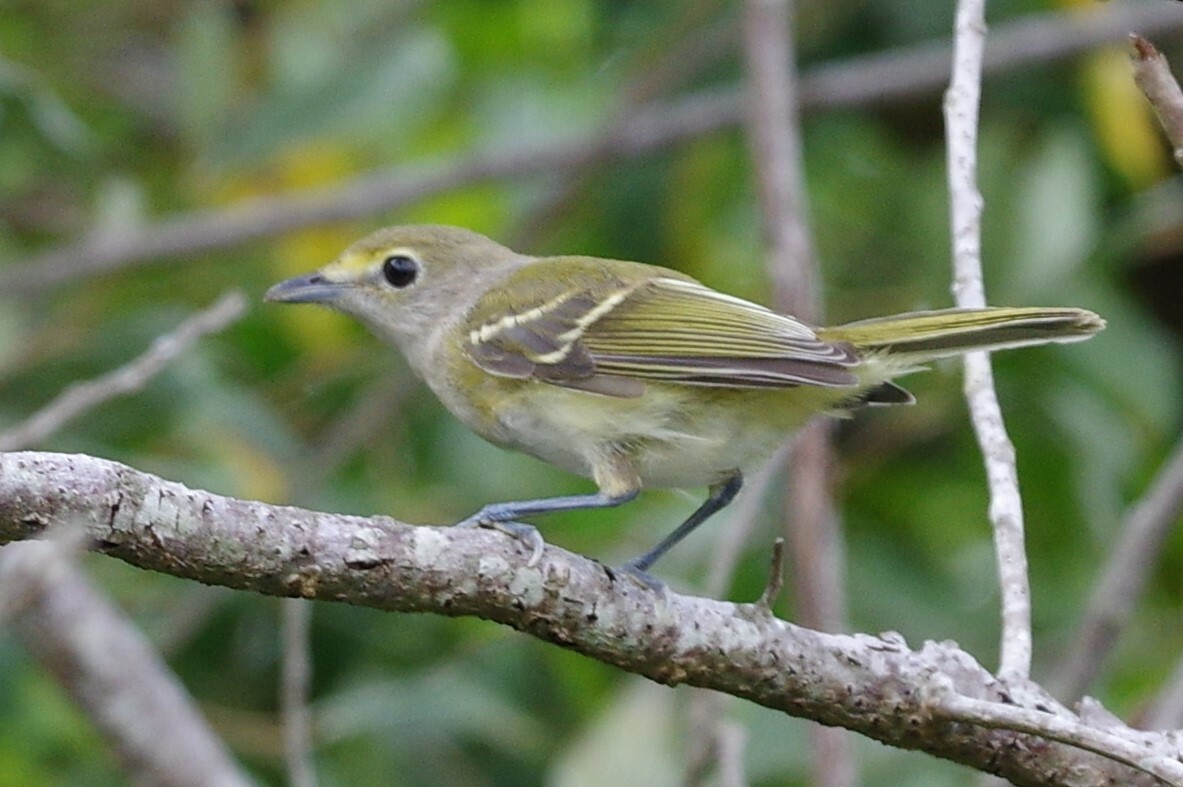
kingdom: Animalia
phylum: Chordata
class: Aves
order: Passeriformes
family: Vireonidae
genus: Vireo
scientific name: Vireo griseus
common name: White-eyed vireo
